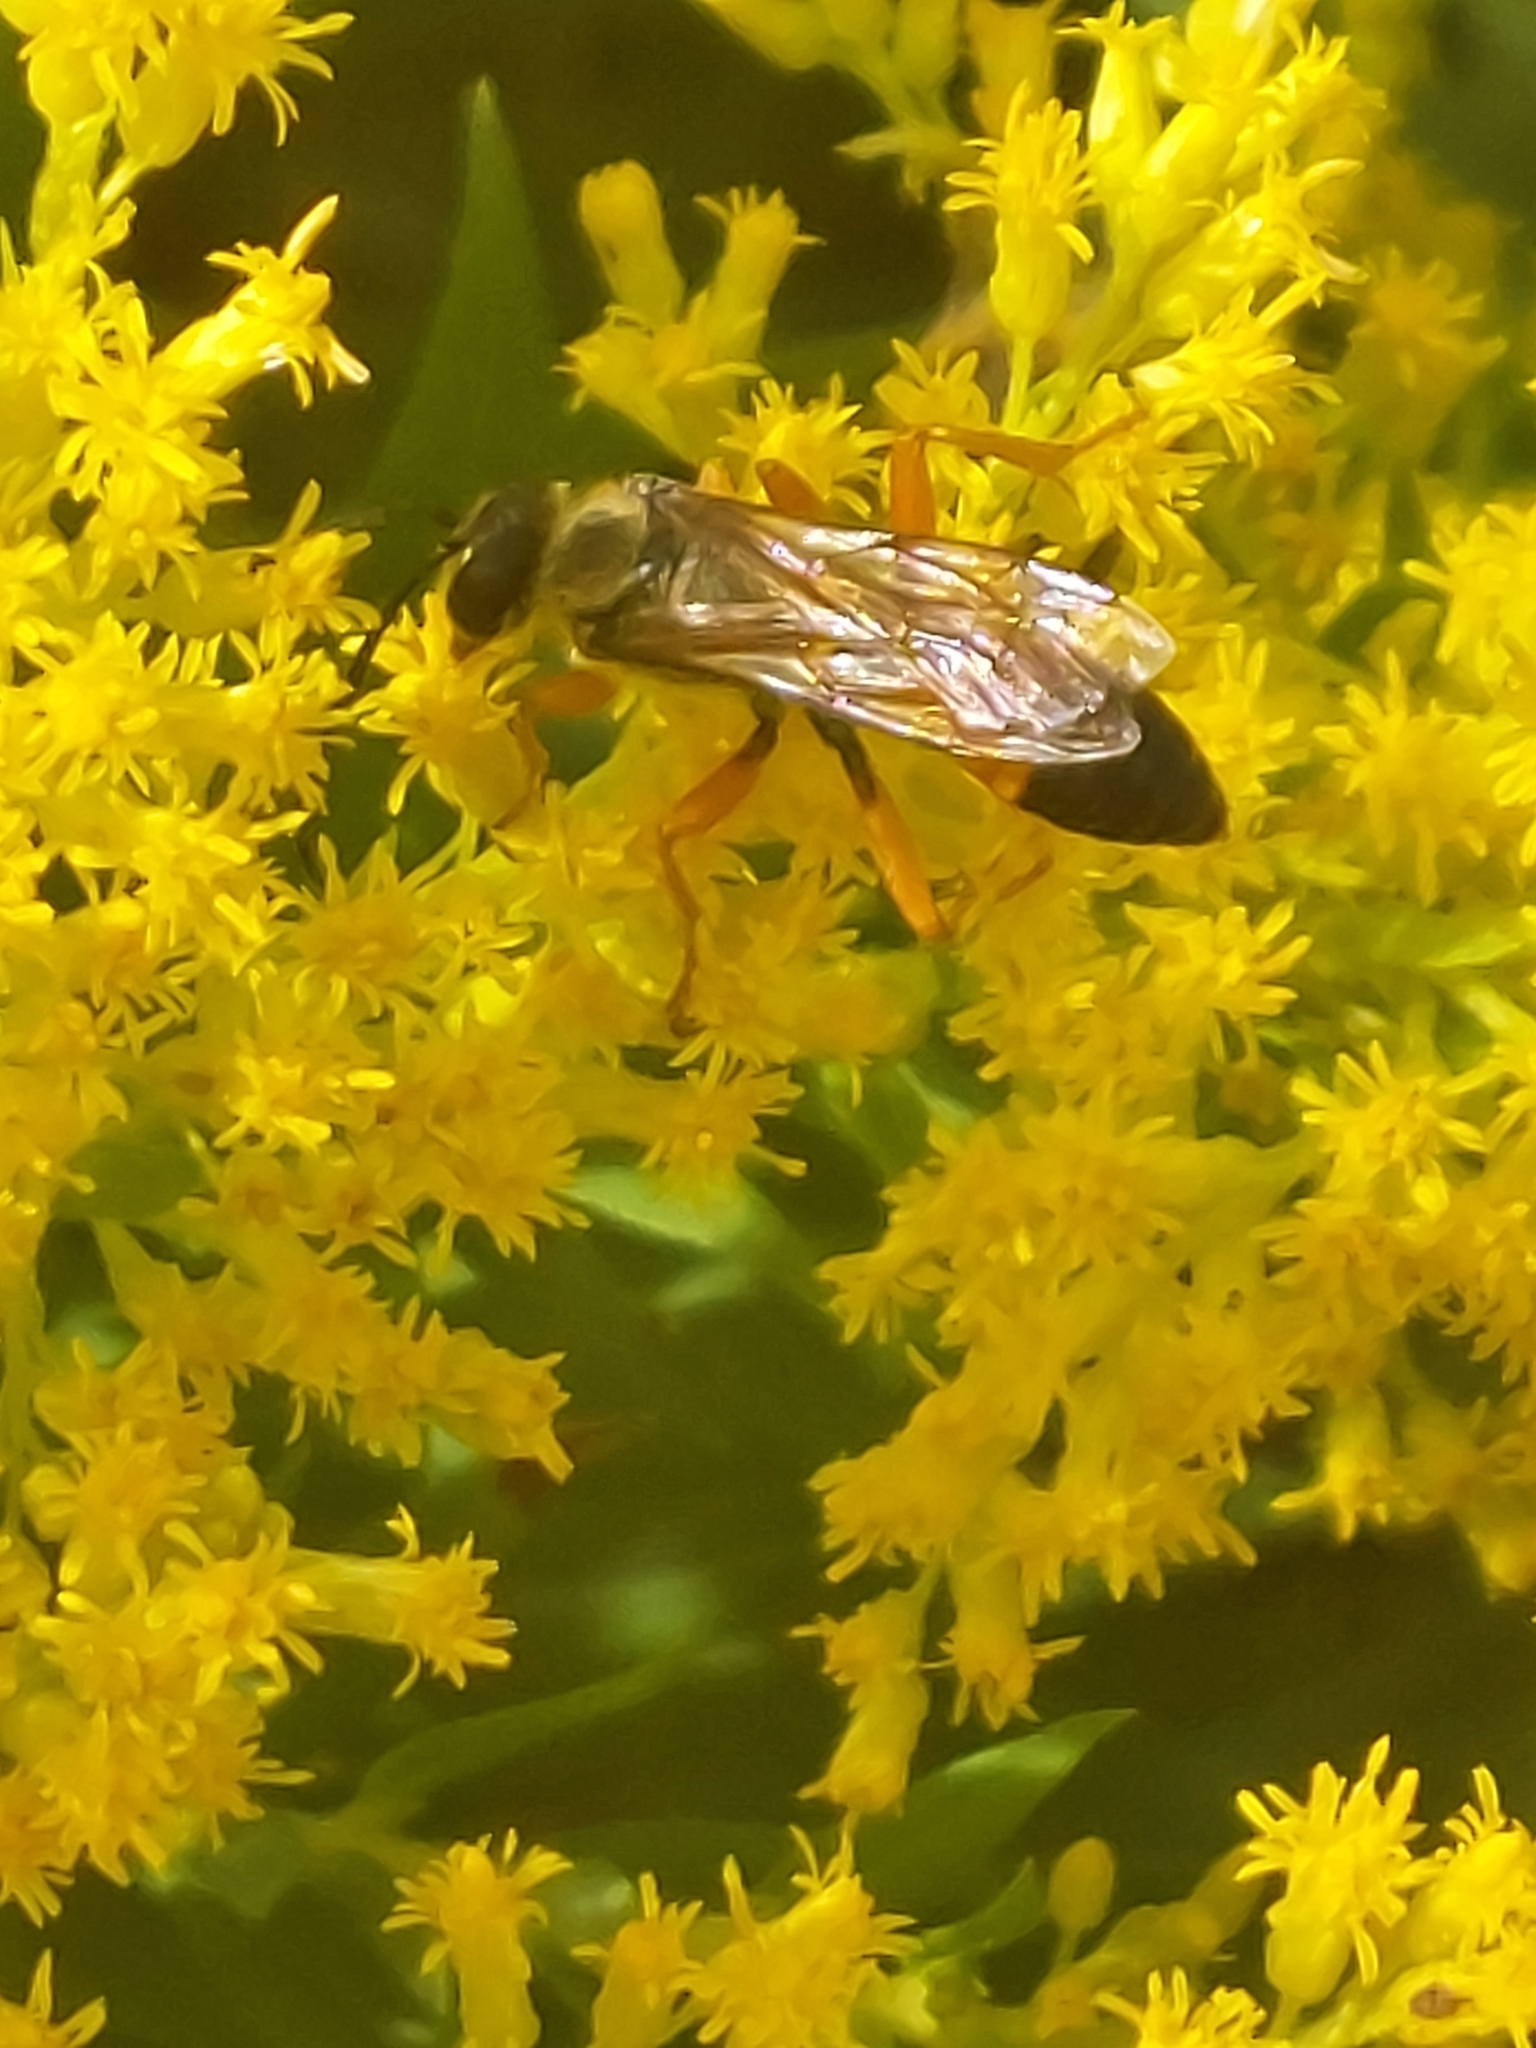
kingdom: Animalia
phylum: Arthropoda
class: Insecta
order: Hymenoptera
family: Sphecidae
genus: Sphex
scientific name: Sphex ichneumoneus
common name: Great golden digger wasp
